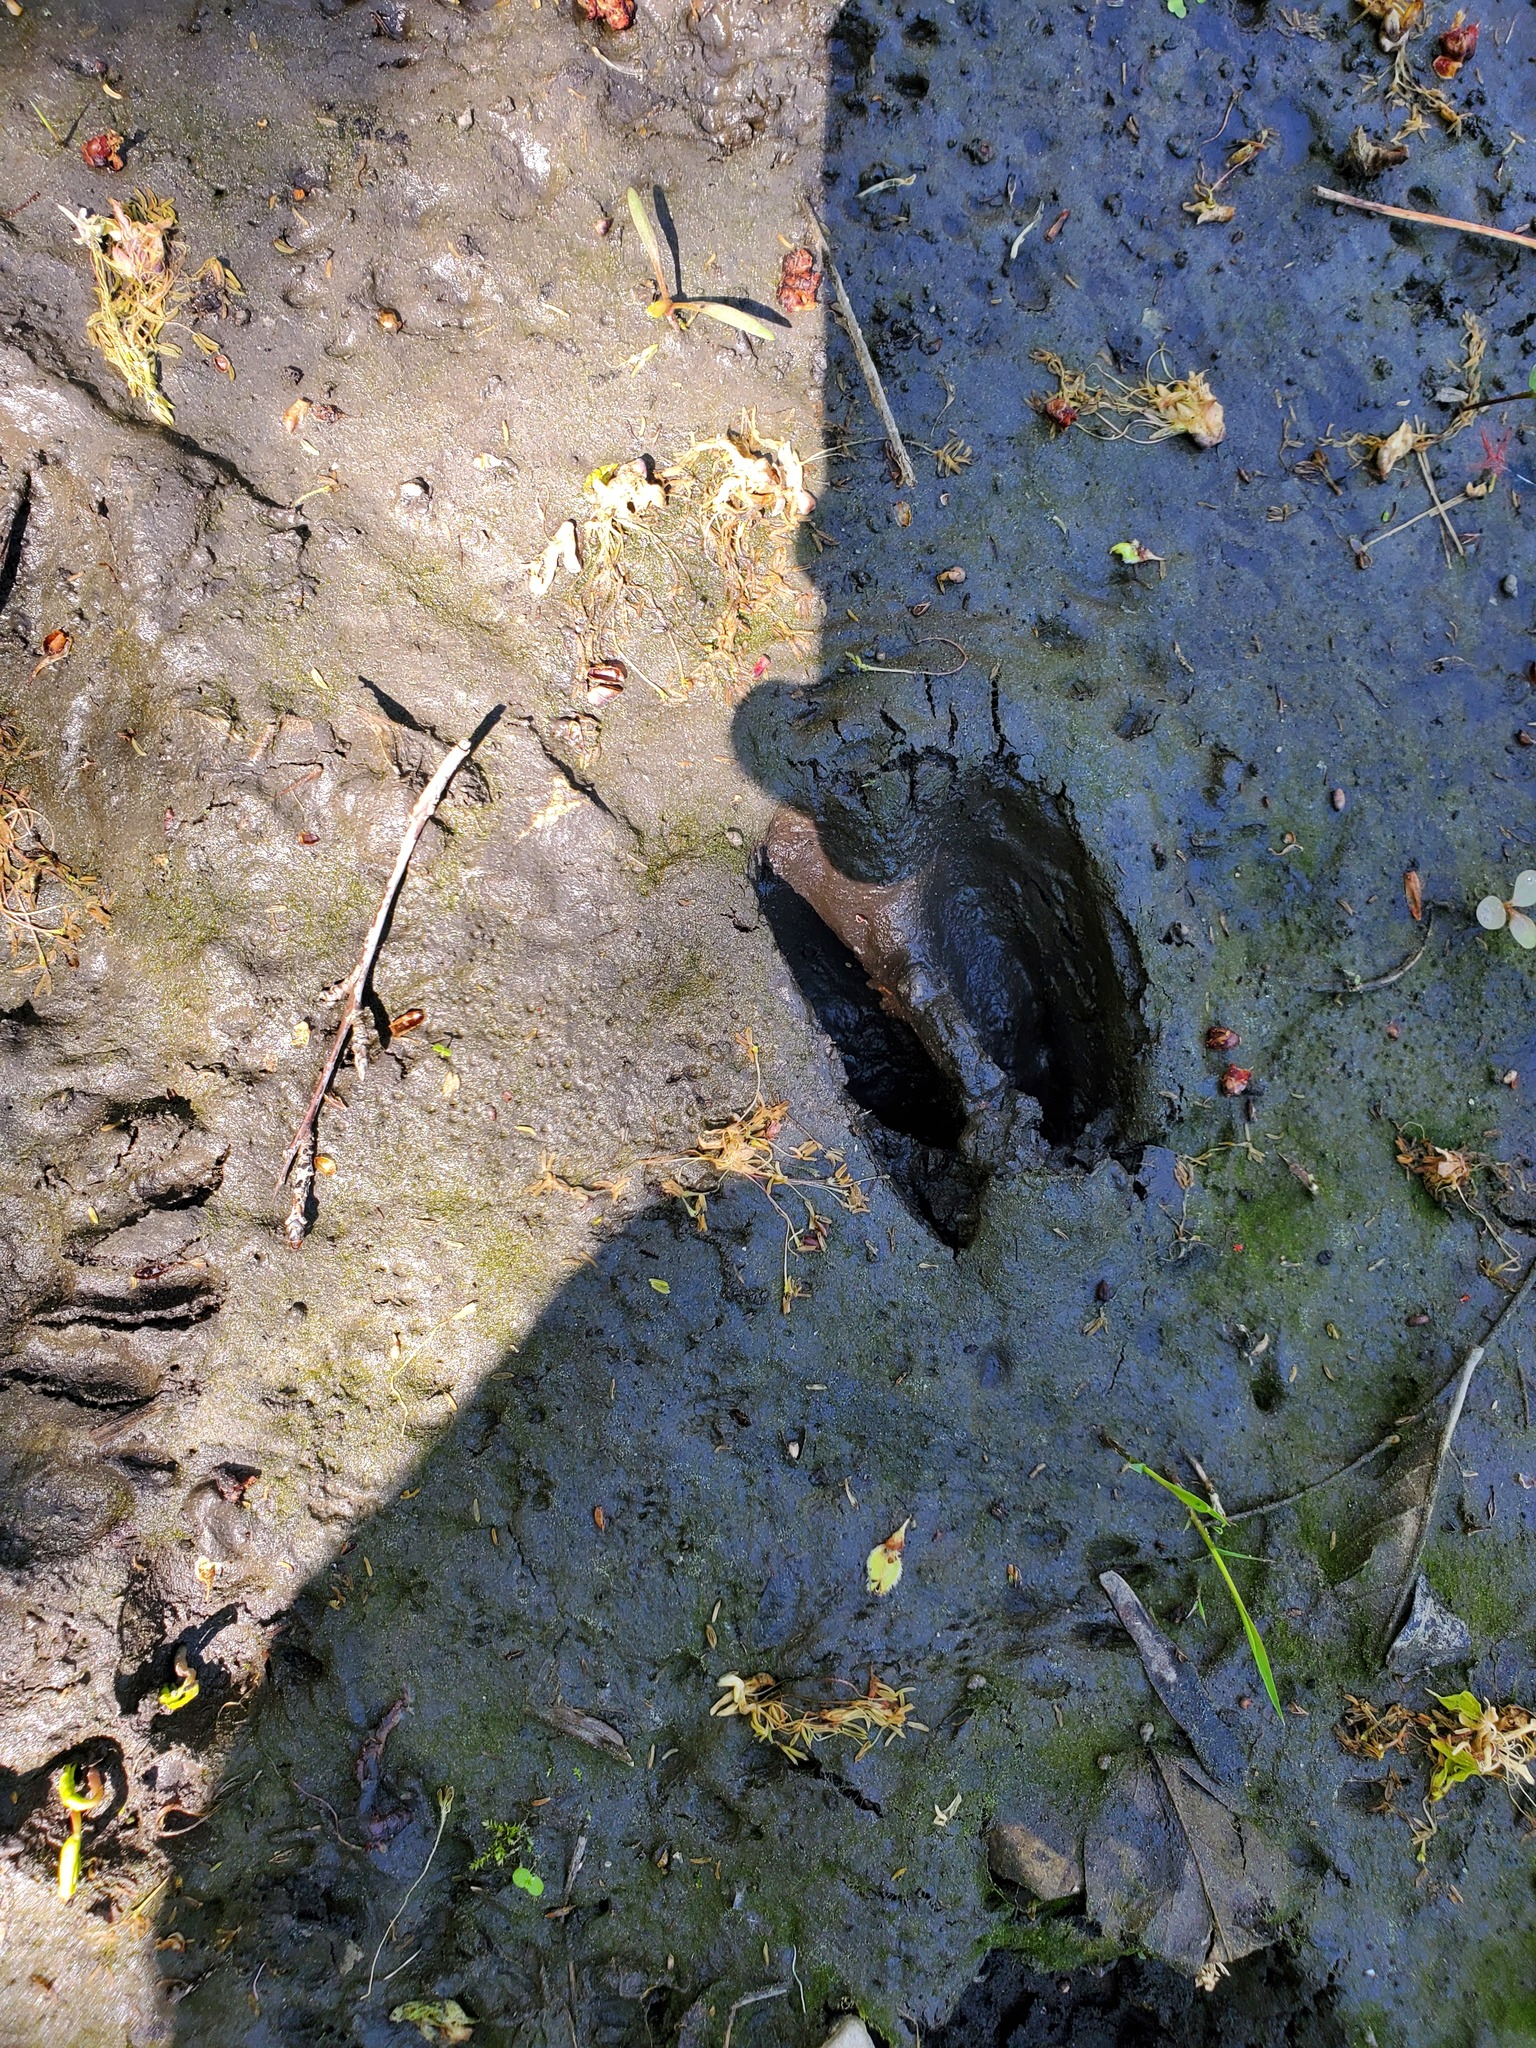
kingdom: Animalia
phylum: Chordata
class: Mammalia
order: Artiodactyla
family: Cervidae
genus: Odocoileus
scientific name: Odocoileus virginianus
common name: White-tailed deer
